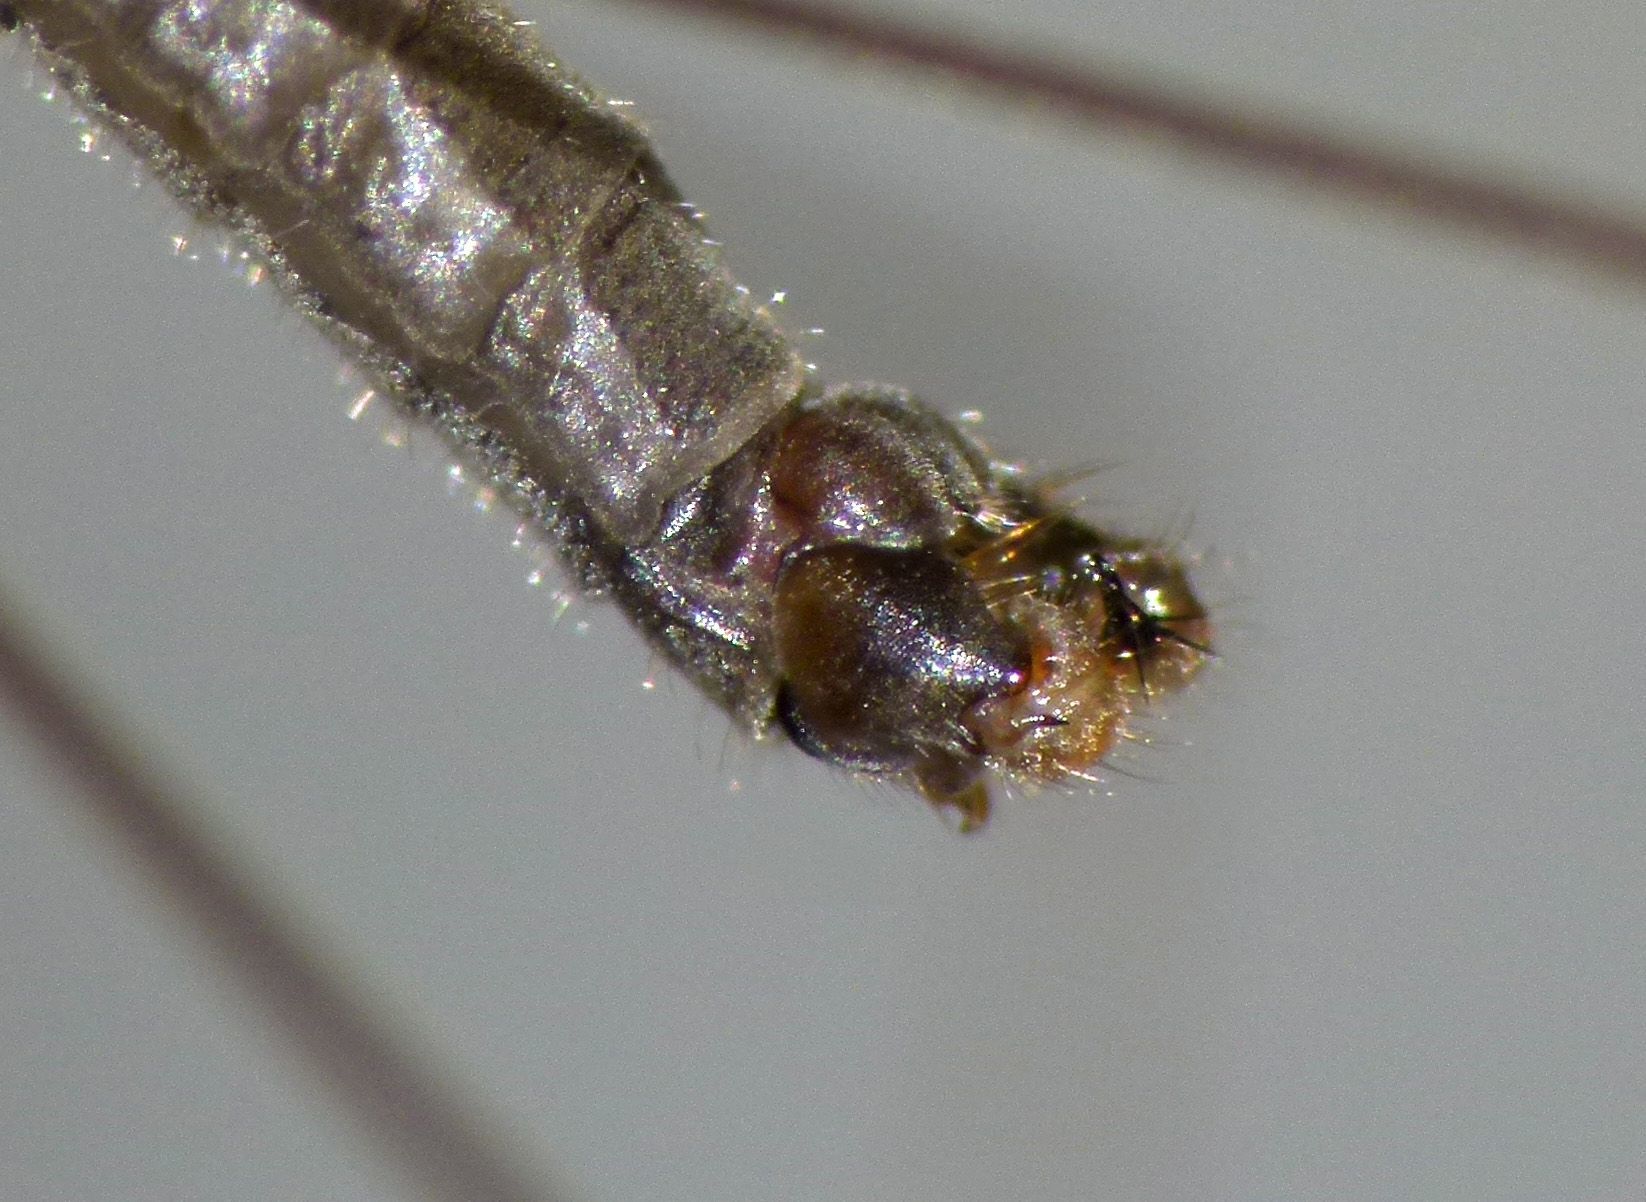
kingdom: Animalia
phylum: Arthropoda
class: Insecta
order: Diptera
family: Limoniidae
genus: Dicranomyia
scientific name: Dicranomyia aegrotans
